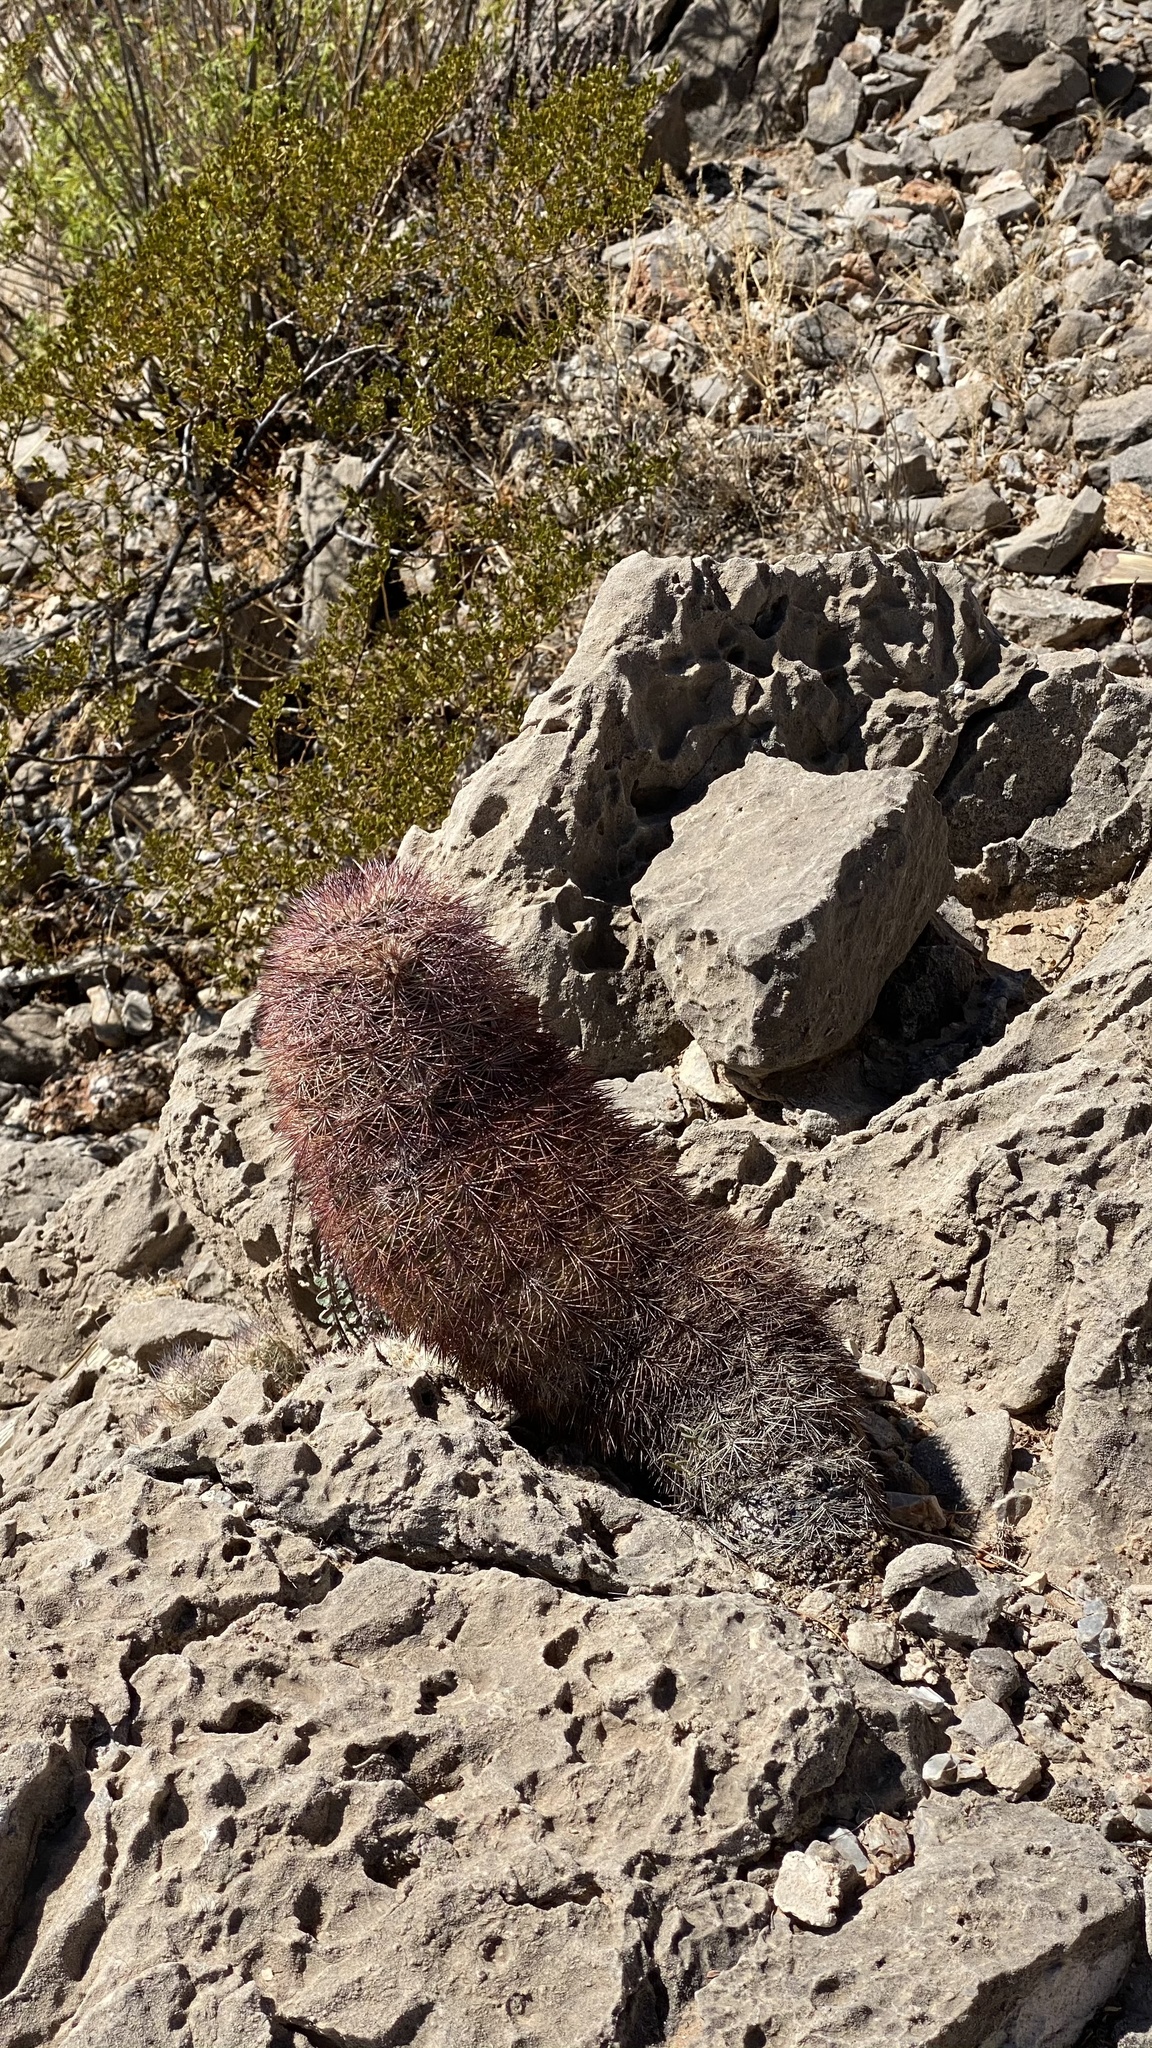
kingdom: Plantae
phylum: Tracheophyta
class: Magnoliopsida
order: Caryophyllales
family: Cactaceae
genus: Echinocereus
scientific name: Echinocereus dasyacanthus
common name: Spiny hedgehog cactus
